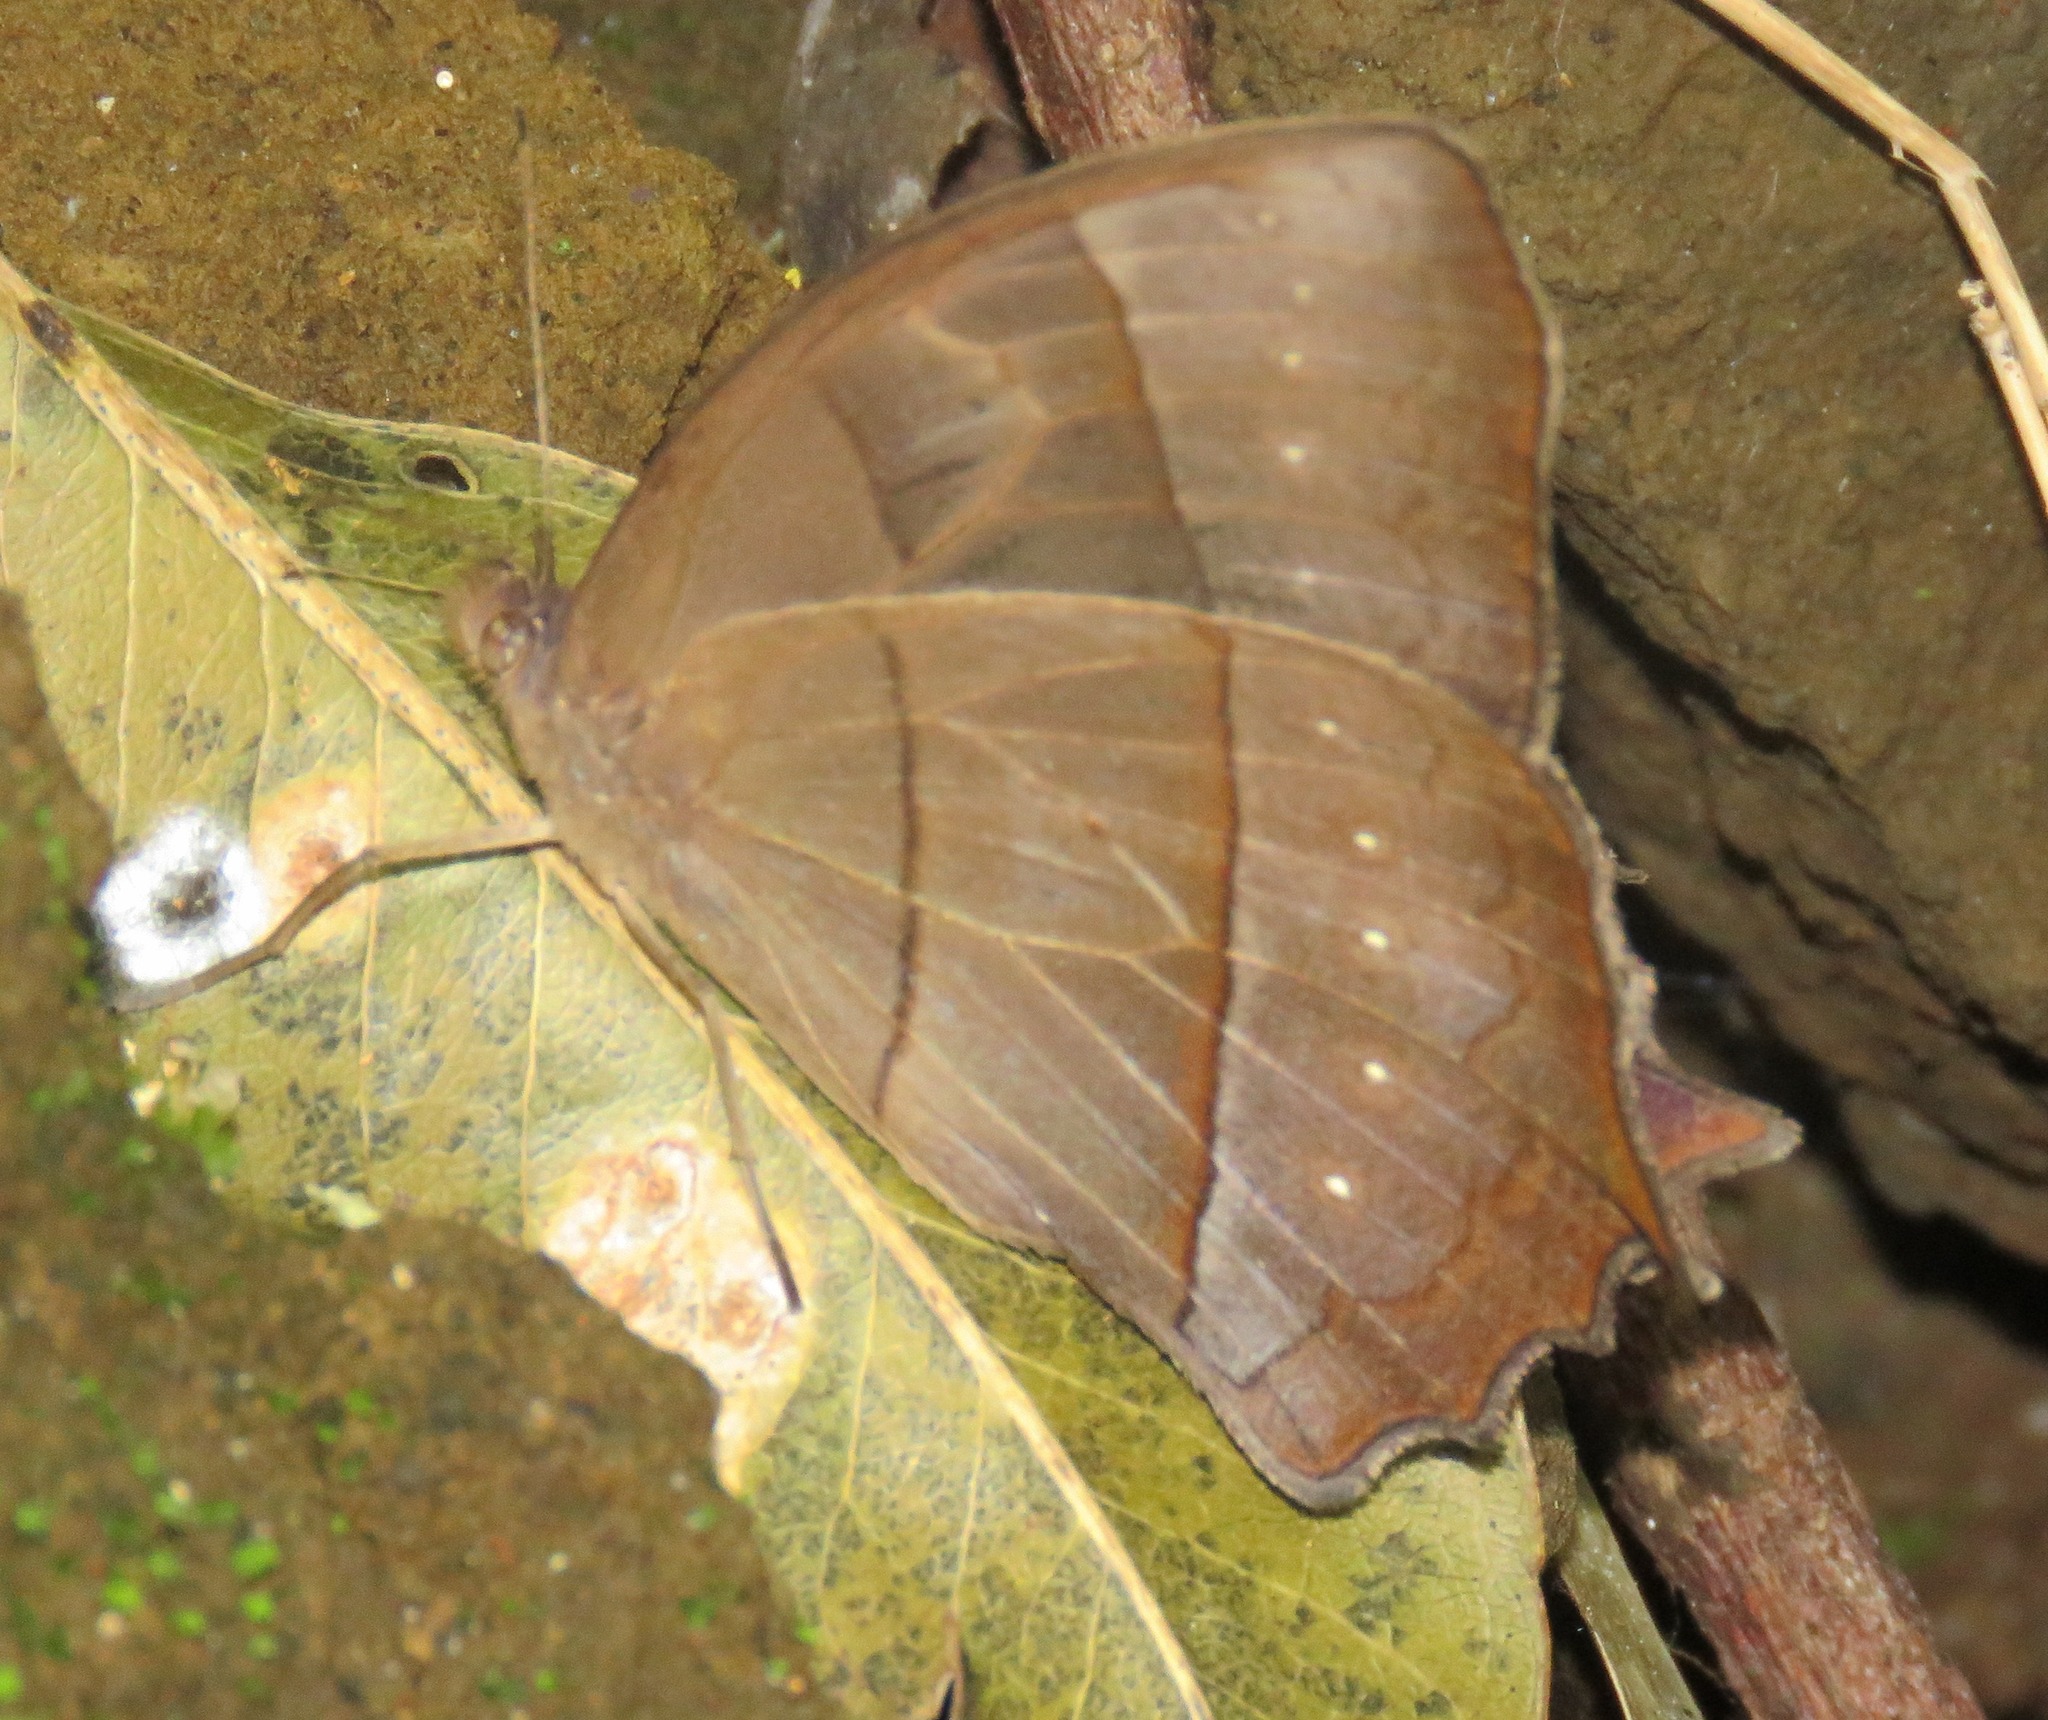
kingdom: Animalia
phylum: Arthropoda
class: Insecta
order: Lepidoptera
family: Nymphalidae
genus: Taygetis
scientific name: Taygetis virgilia
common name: Stub-tailed satyr
